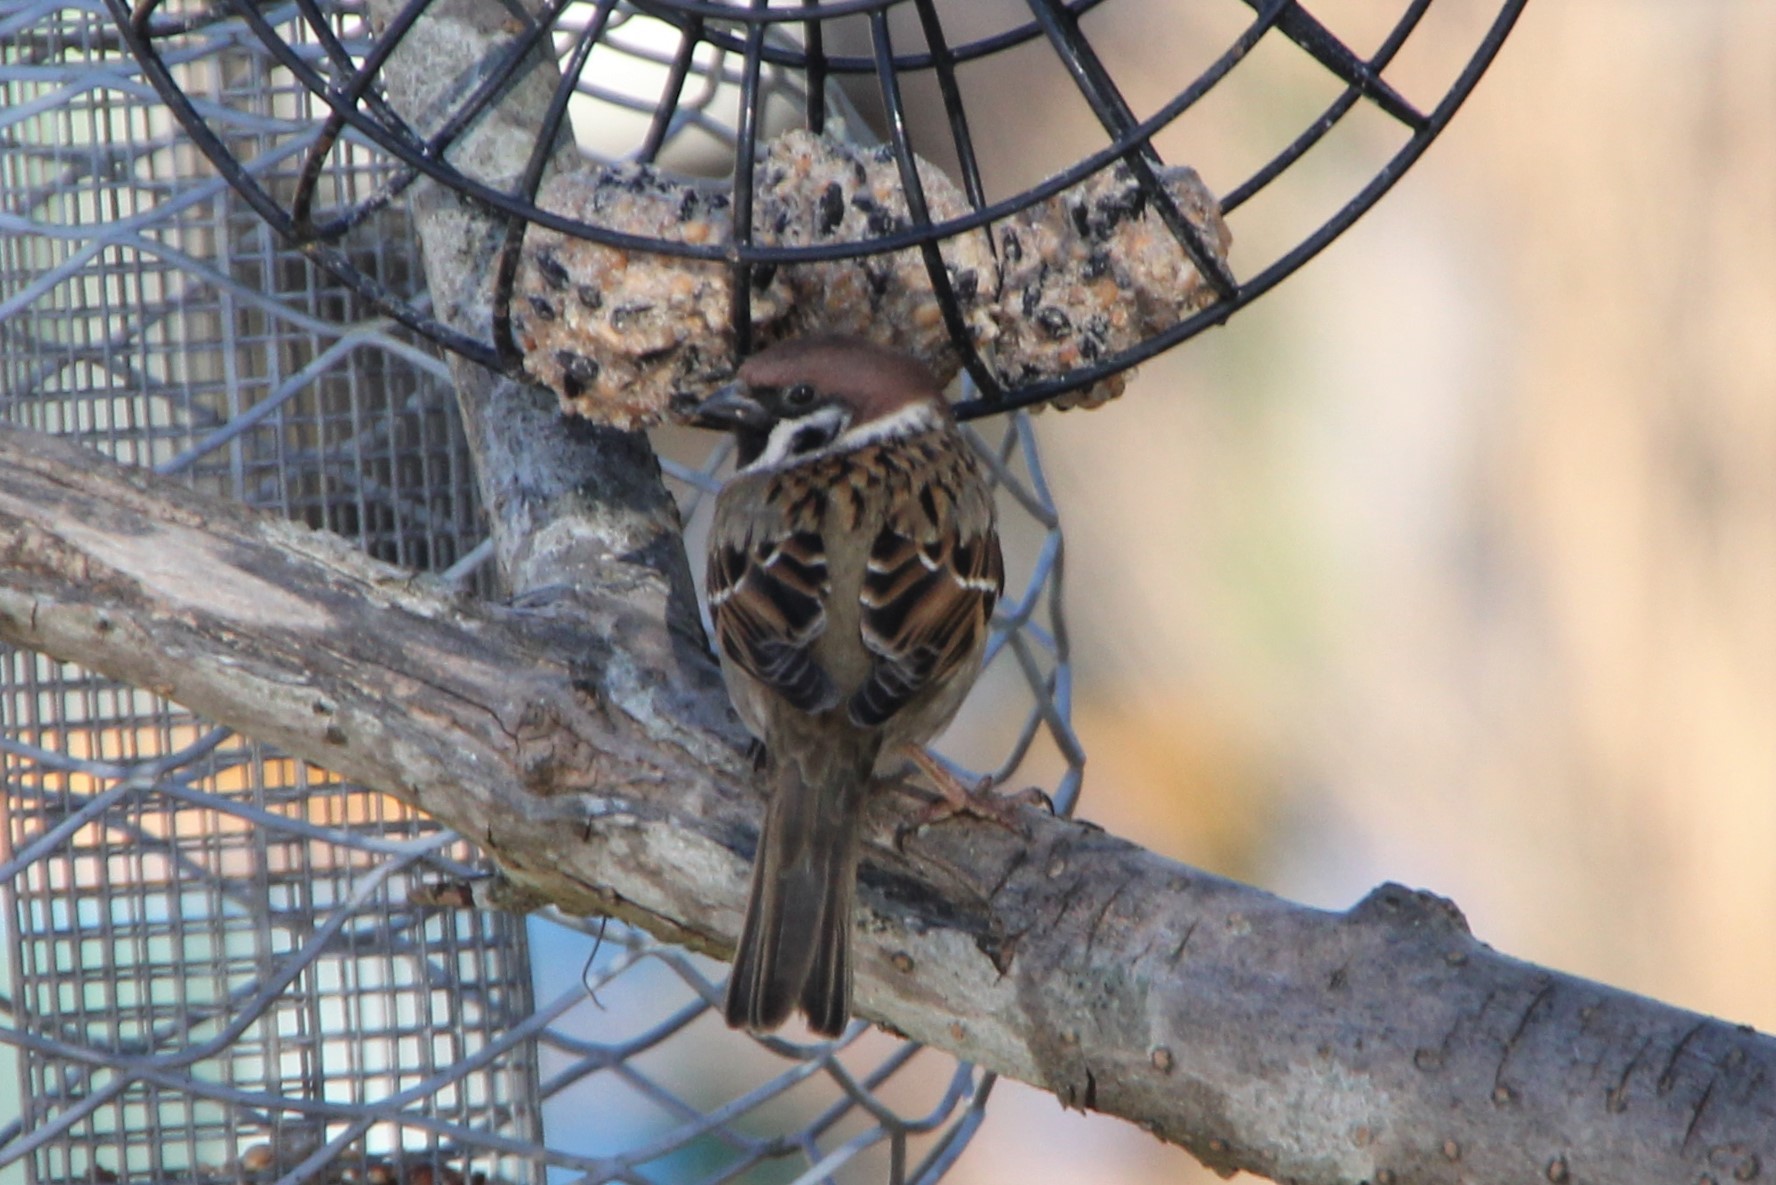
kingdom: Animalia
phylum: Chordata
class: Aves
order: Passeriformes
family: Passeridae
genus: Passer
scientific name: Passer montanus
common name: Eurasian tree sparrow
